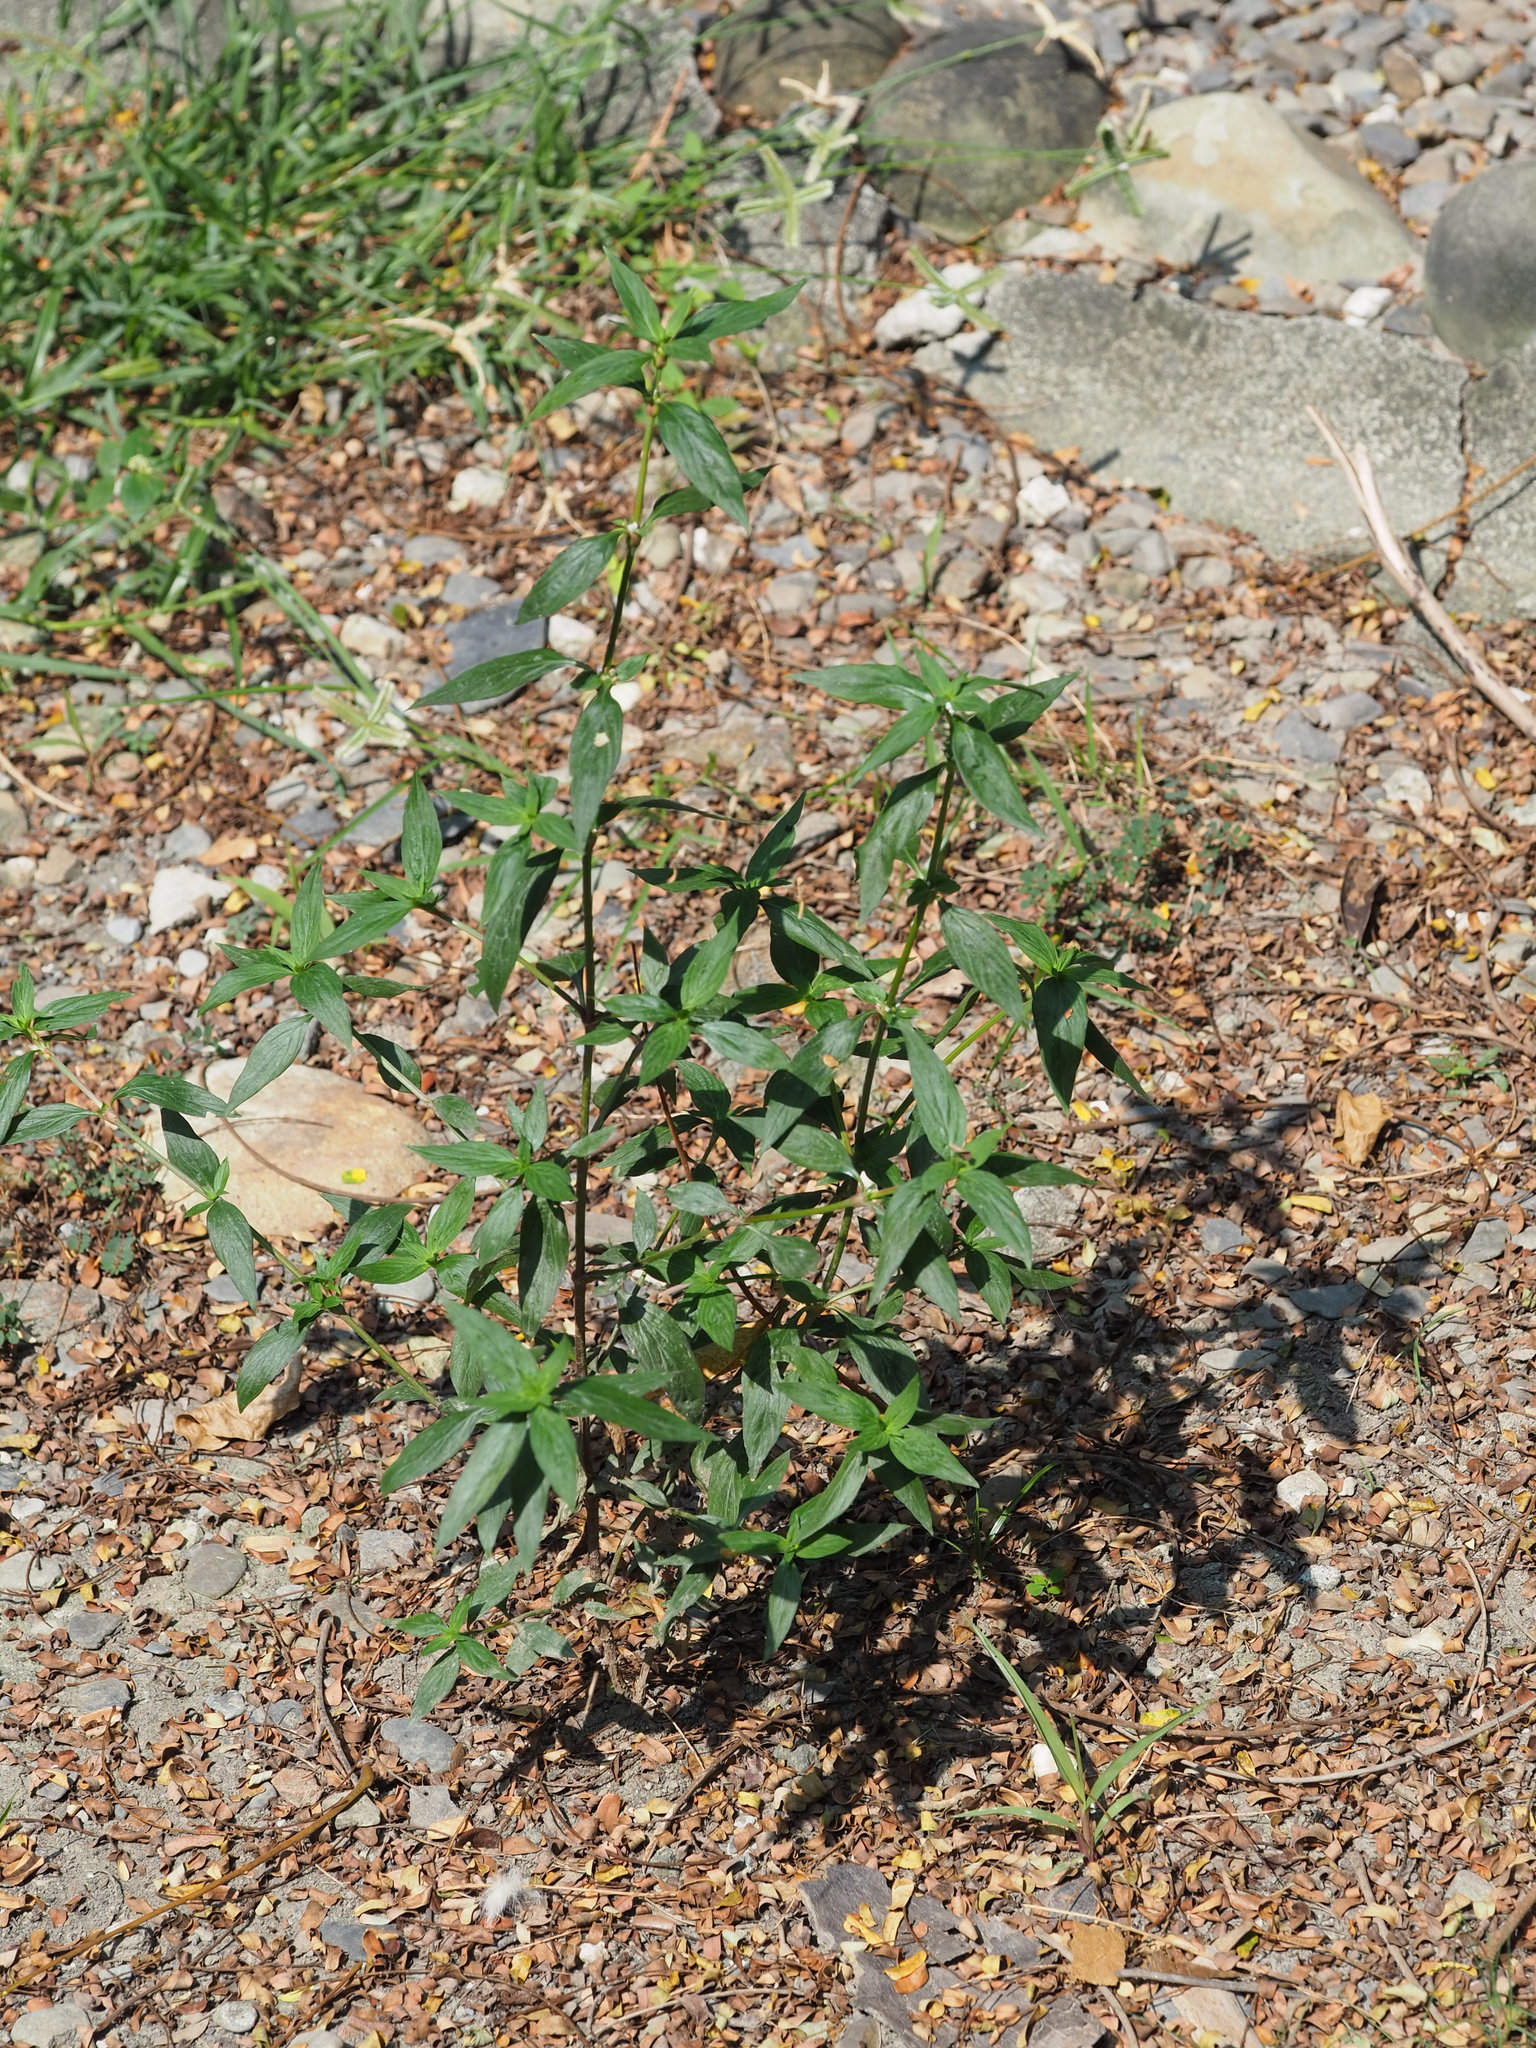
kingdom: Plantae
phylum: Tracheophyta
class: Magnoliopsida
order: Gentianales
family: Rubiaceae
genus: Spermacoce
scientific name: Spermacoce remota
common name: Woodland false buttonweed
